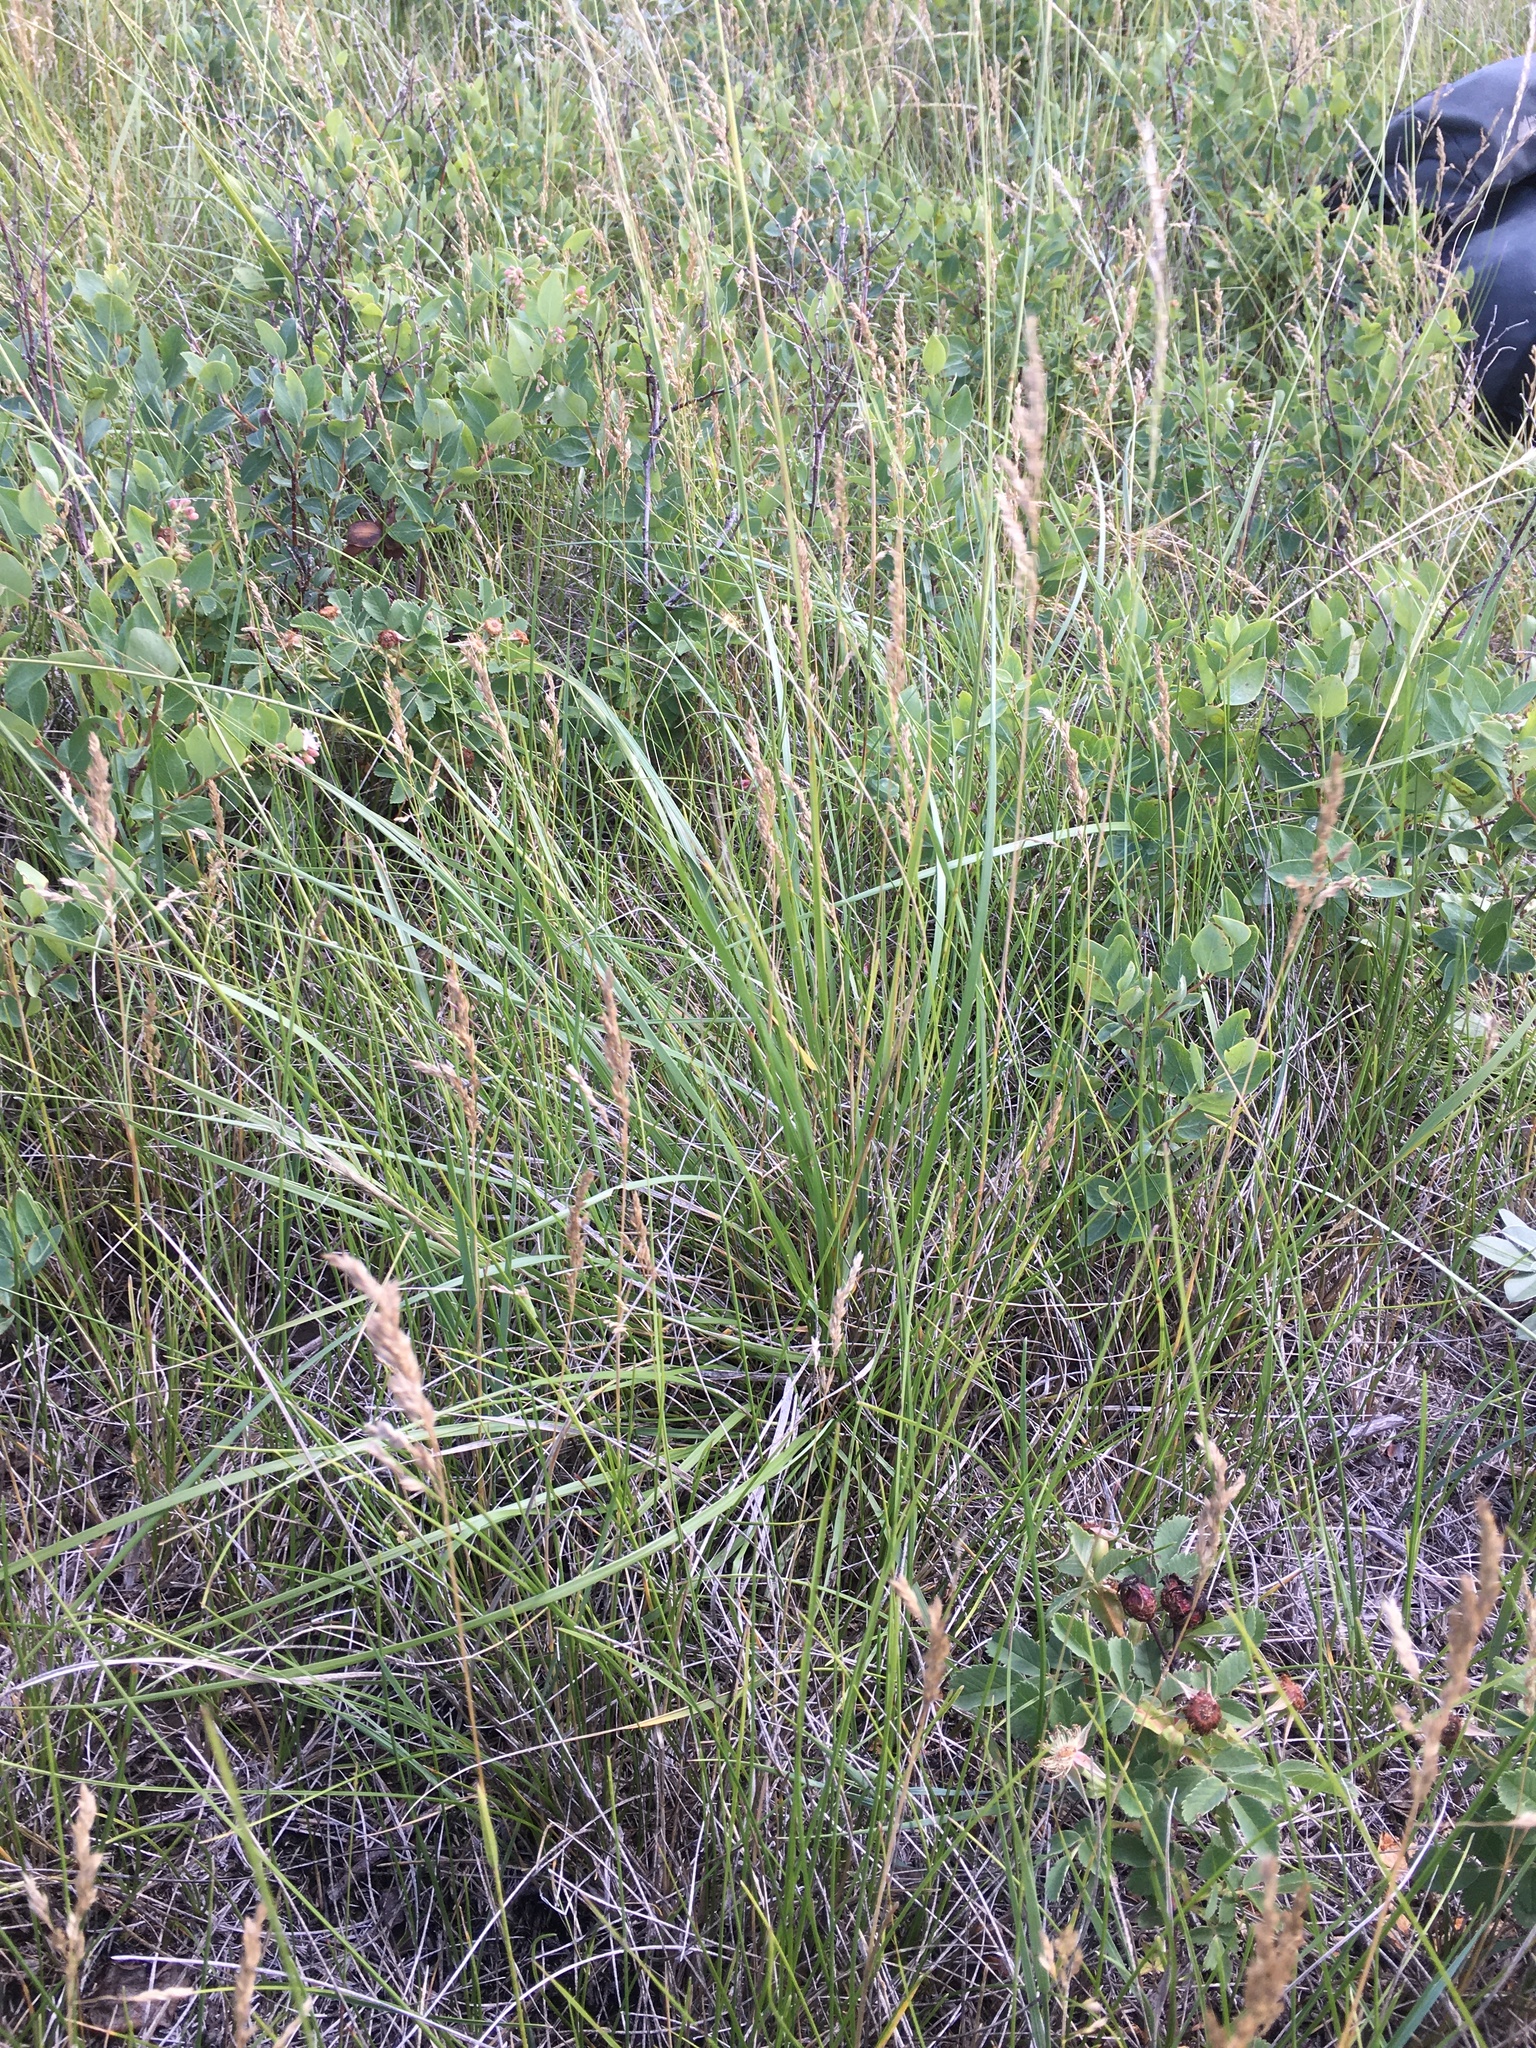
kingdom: Plantae
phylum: Tracheophyta
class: Liliopsida
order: Poales
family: Poaceae
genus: Nassella
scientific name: Nassella viridula
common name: Green needlegrass
